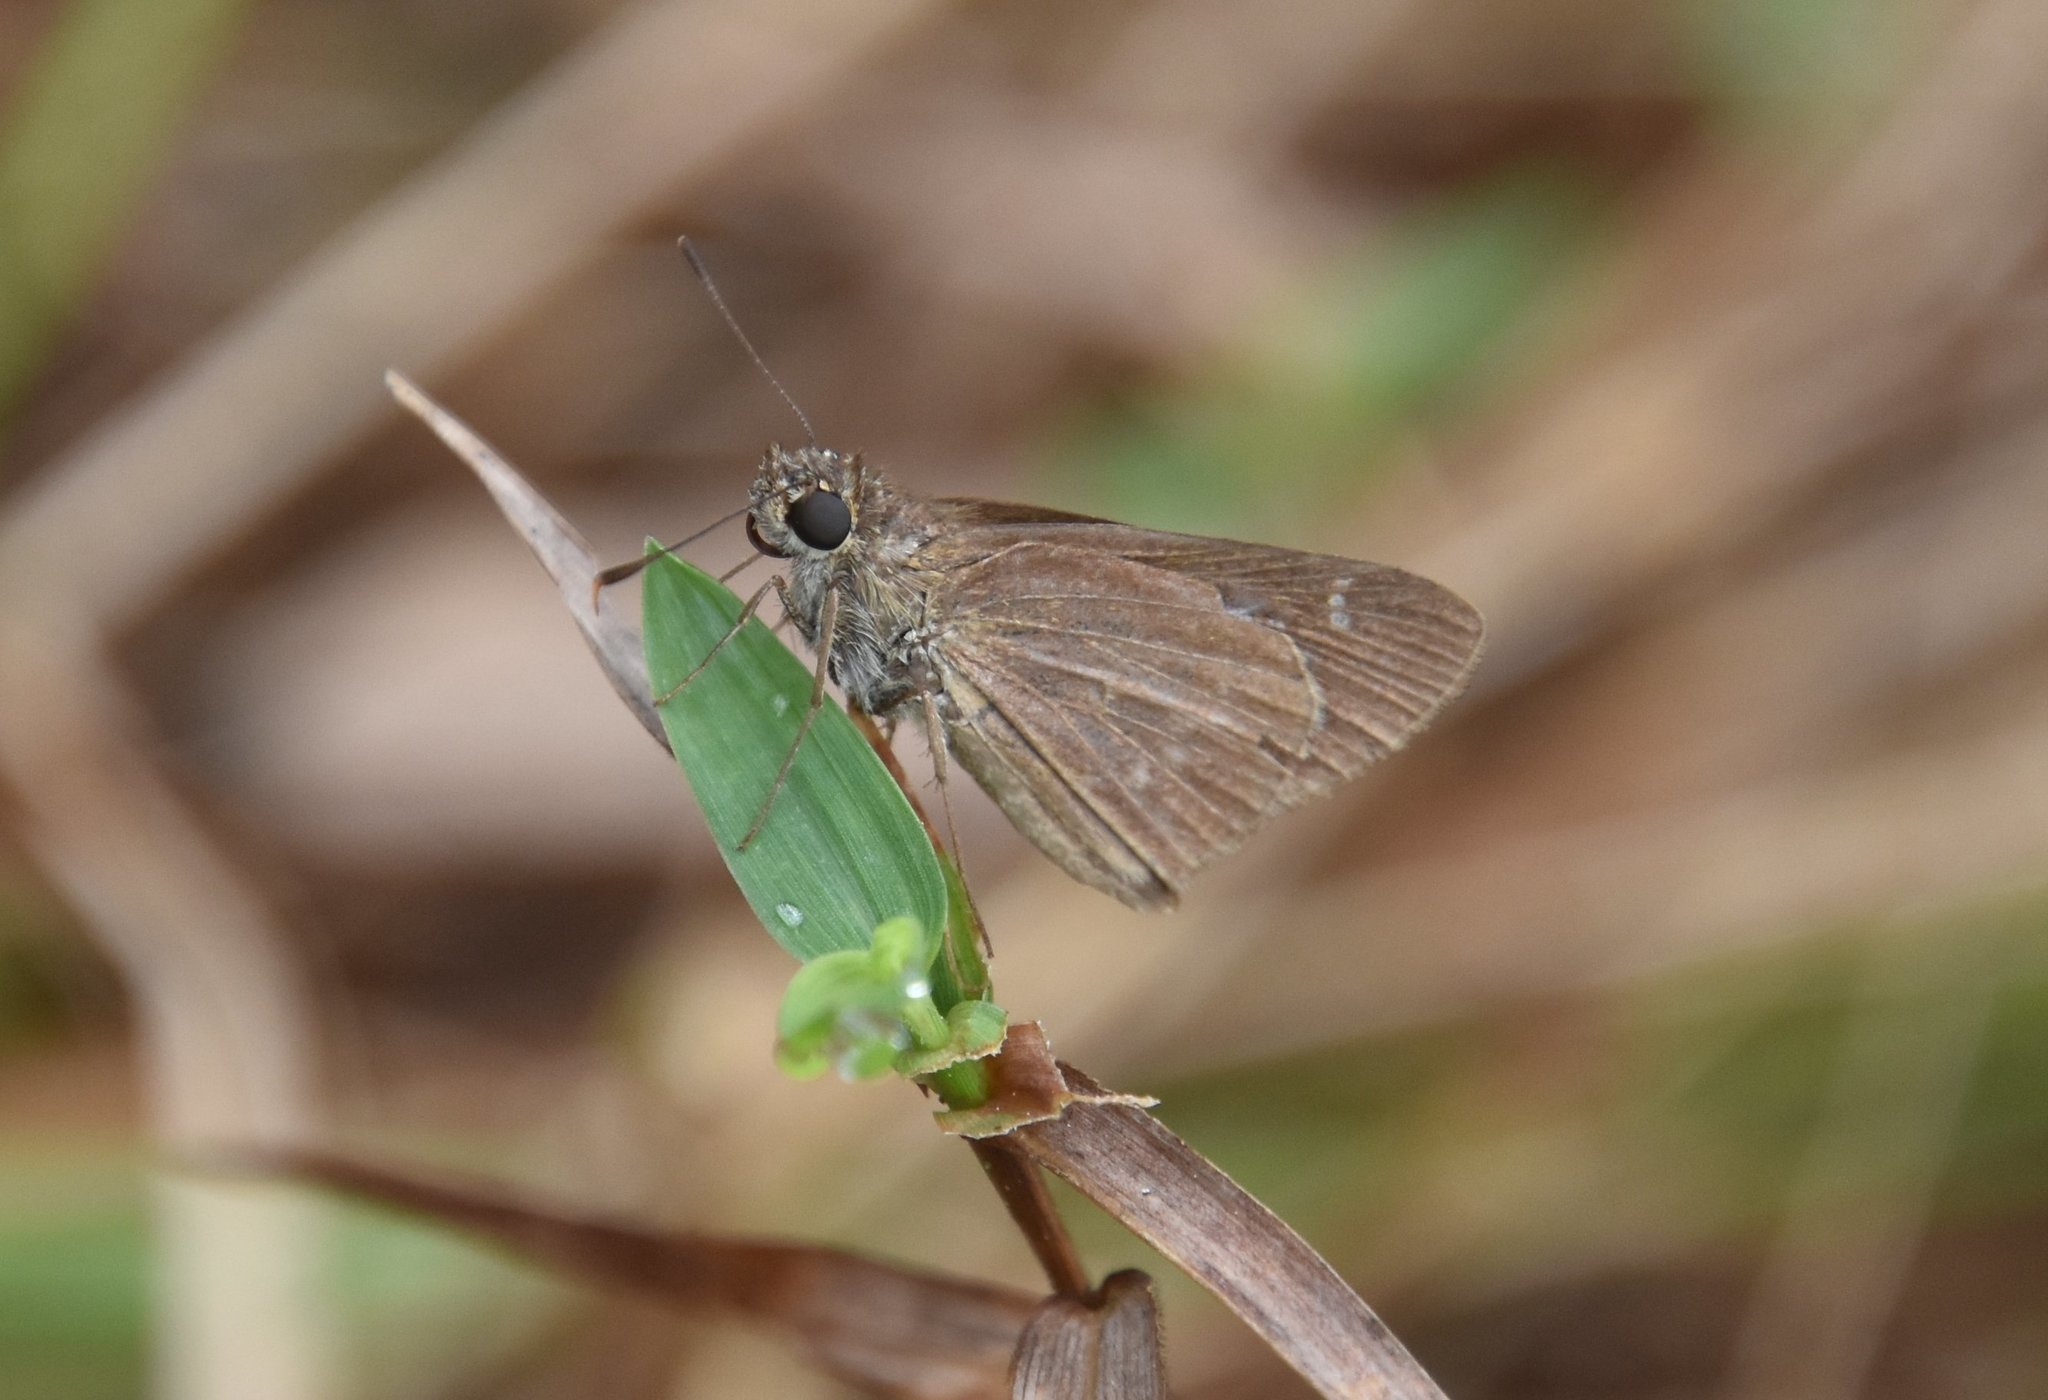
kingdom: Animalia
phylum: Arthropoda
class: Insecta
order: Lepidoptera
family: Hesperiidae
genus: Cymaenes
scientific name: Cymaenes tripunctus
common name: Dingy dotted skipper
